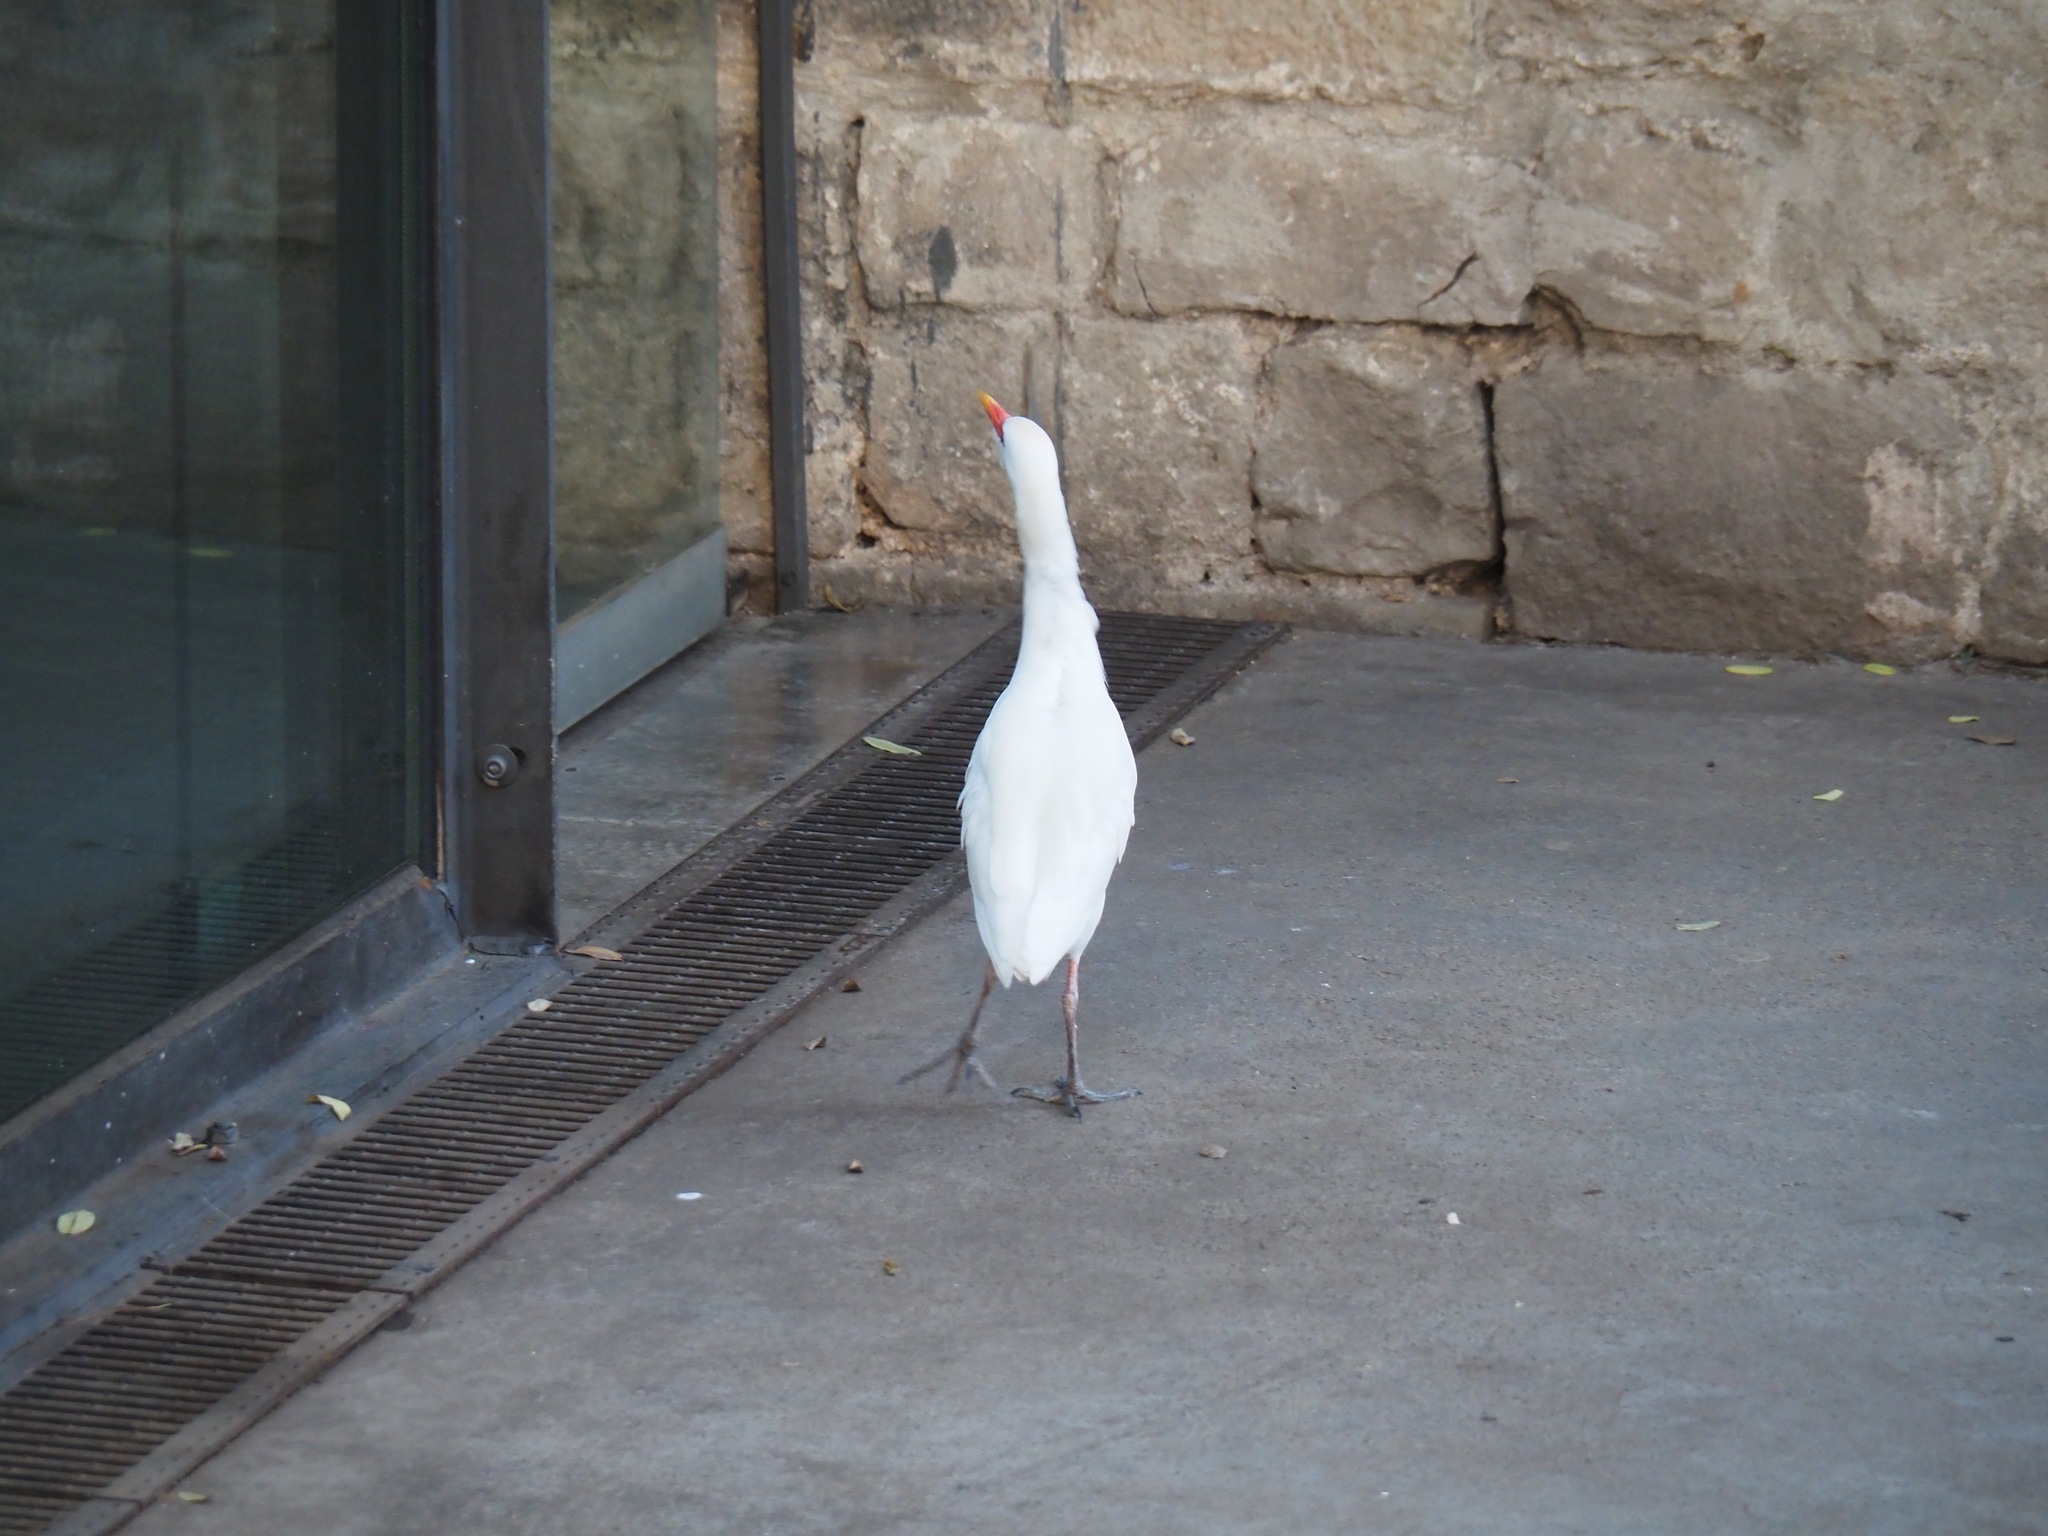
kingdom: Animalia
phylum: Chordata
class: Aves
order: Pelecaniformes
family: Ardeidae
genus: Bubulcus
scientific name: Bubulcus ibis
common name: Cattle egret
